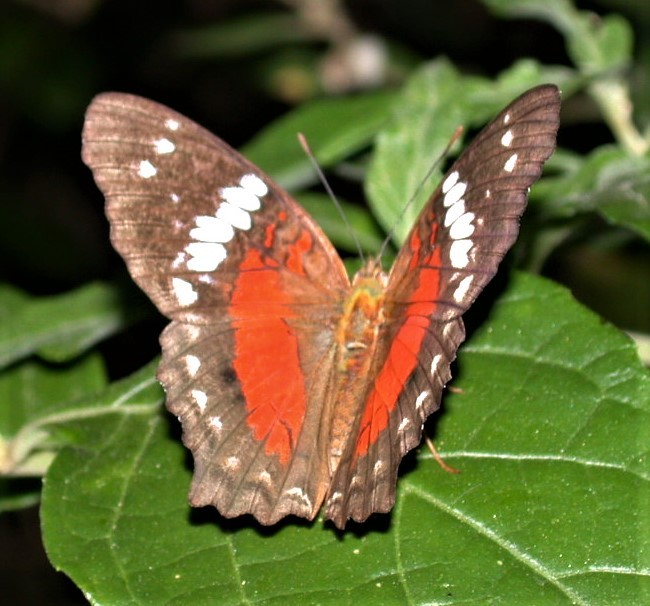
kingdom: Animalia
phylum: Arthropoda
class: Insecta
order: Lepidoptera
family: Nymphalidae
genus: Anartia
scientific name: Anartia amathea
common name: Red peacock
